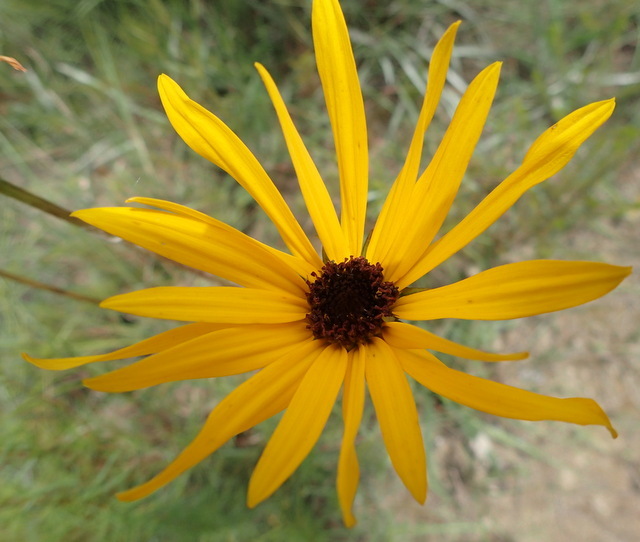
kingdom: Plantae
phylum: Tracheophyta
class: Magnoliopsida
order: Asterales
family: Asteraceae
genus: Helianthus
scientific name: Helianthus heterophyllus
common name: Wetland sunflower
